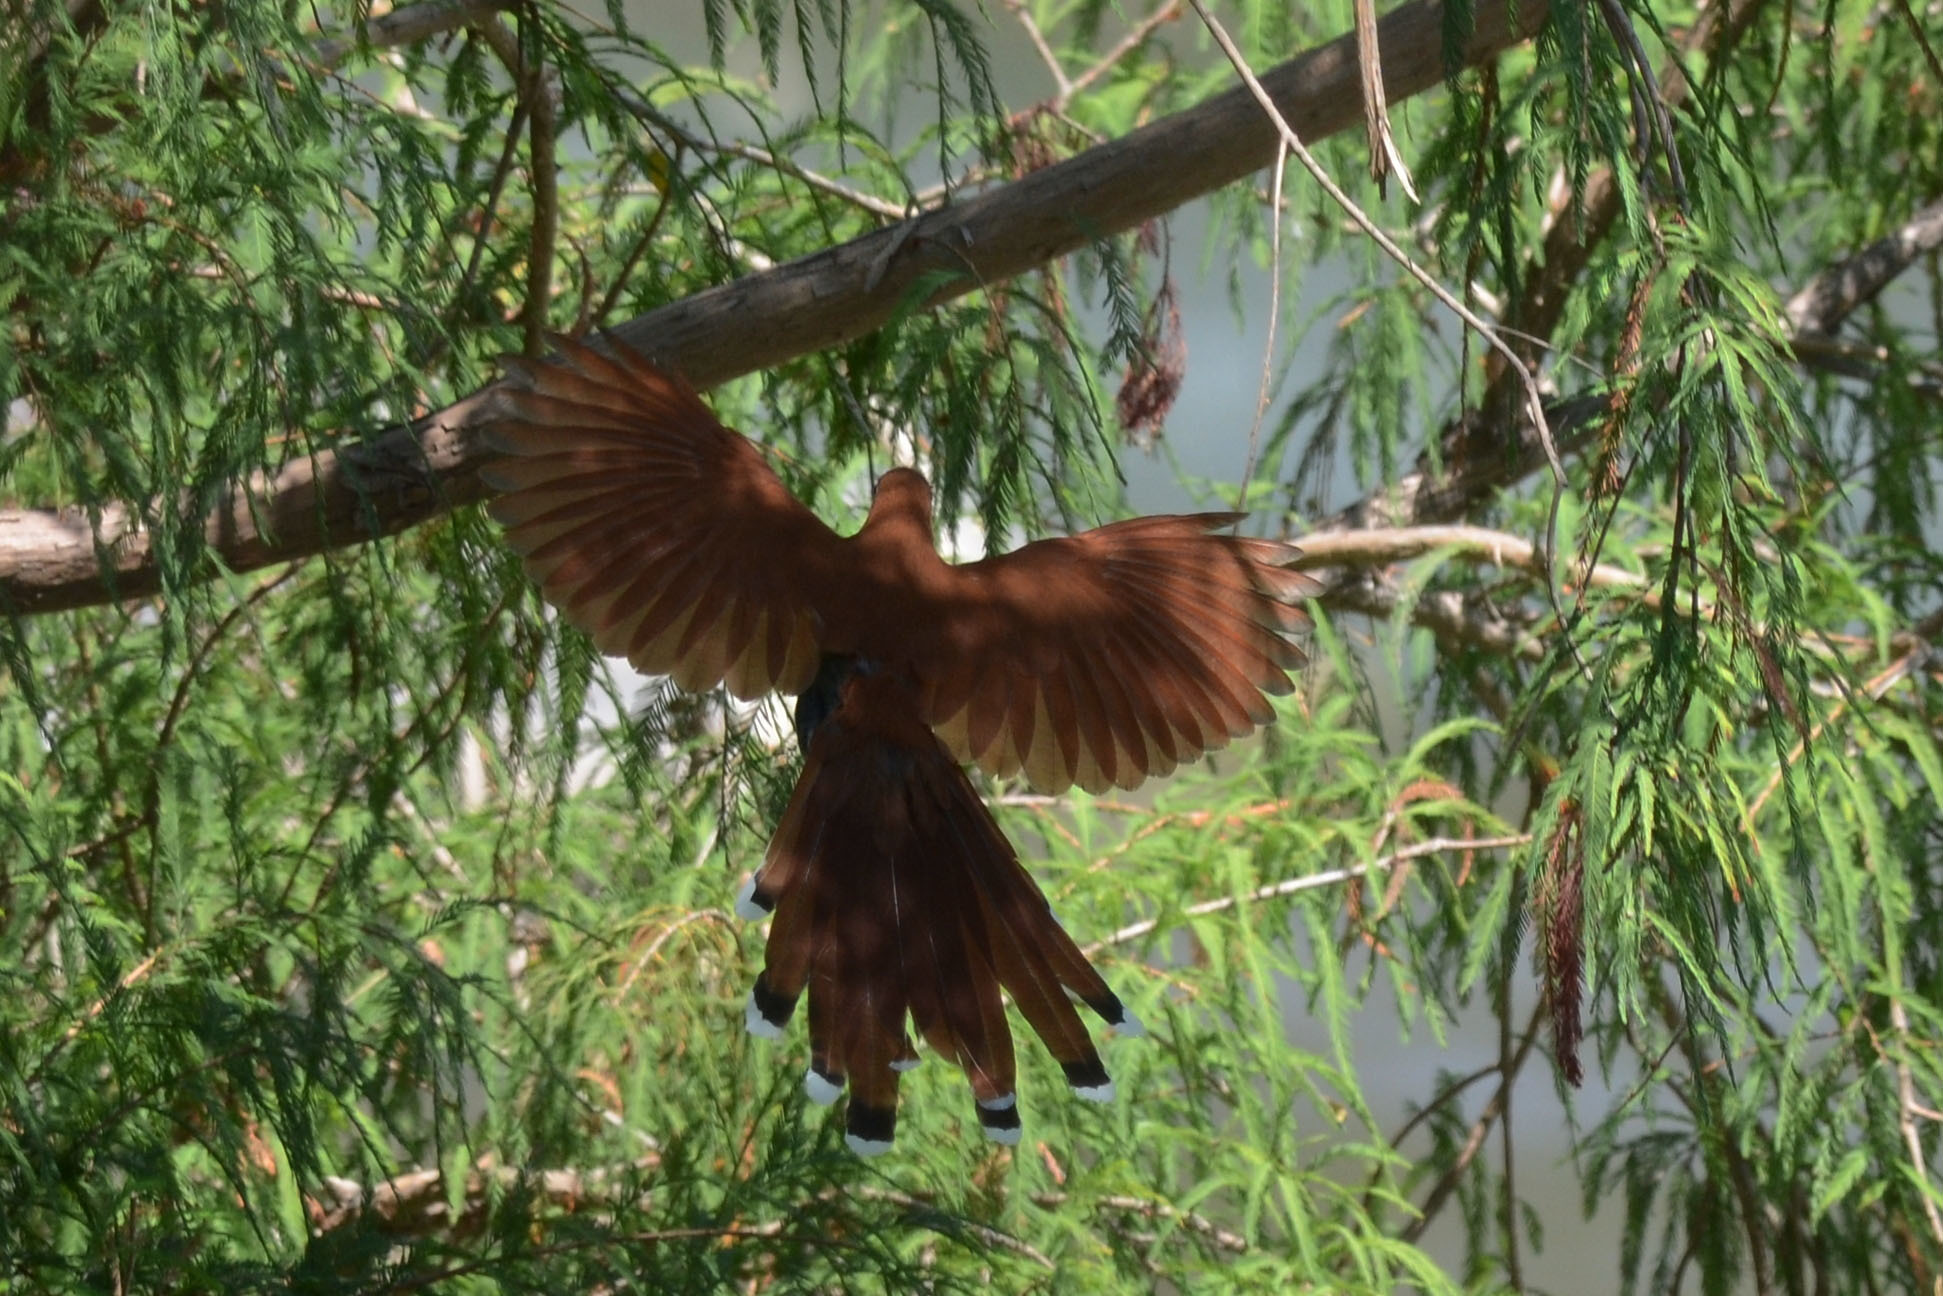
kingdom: Animalia
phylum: Chordata
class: Aves
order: Cuculiformes
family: Cuculidae
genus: Piaya
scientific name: Piaya cayana
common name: Squirrel cuckoo
